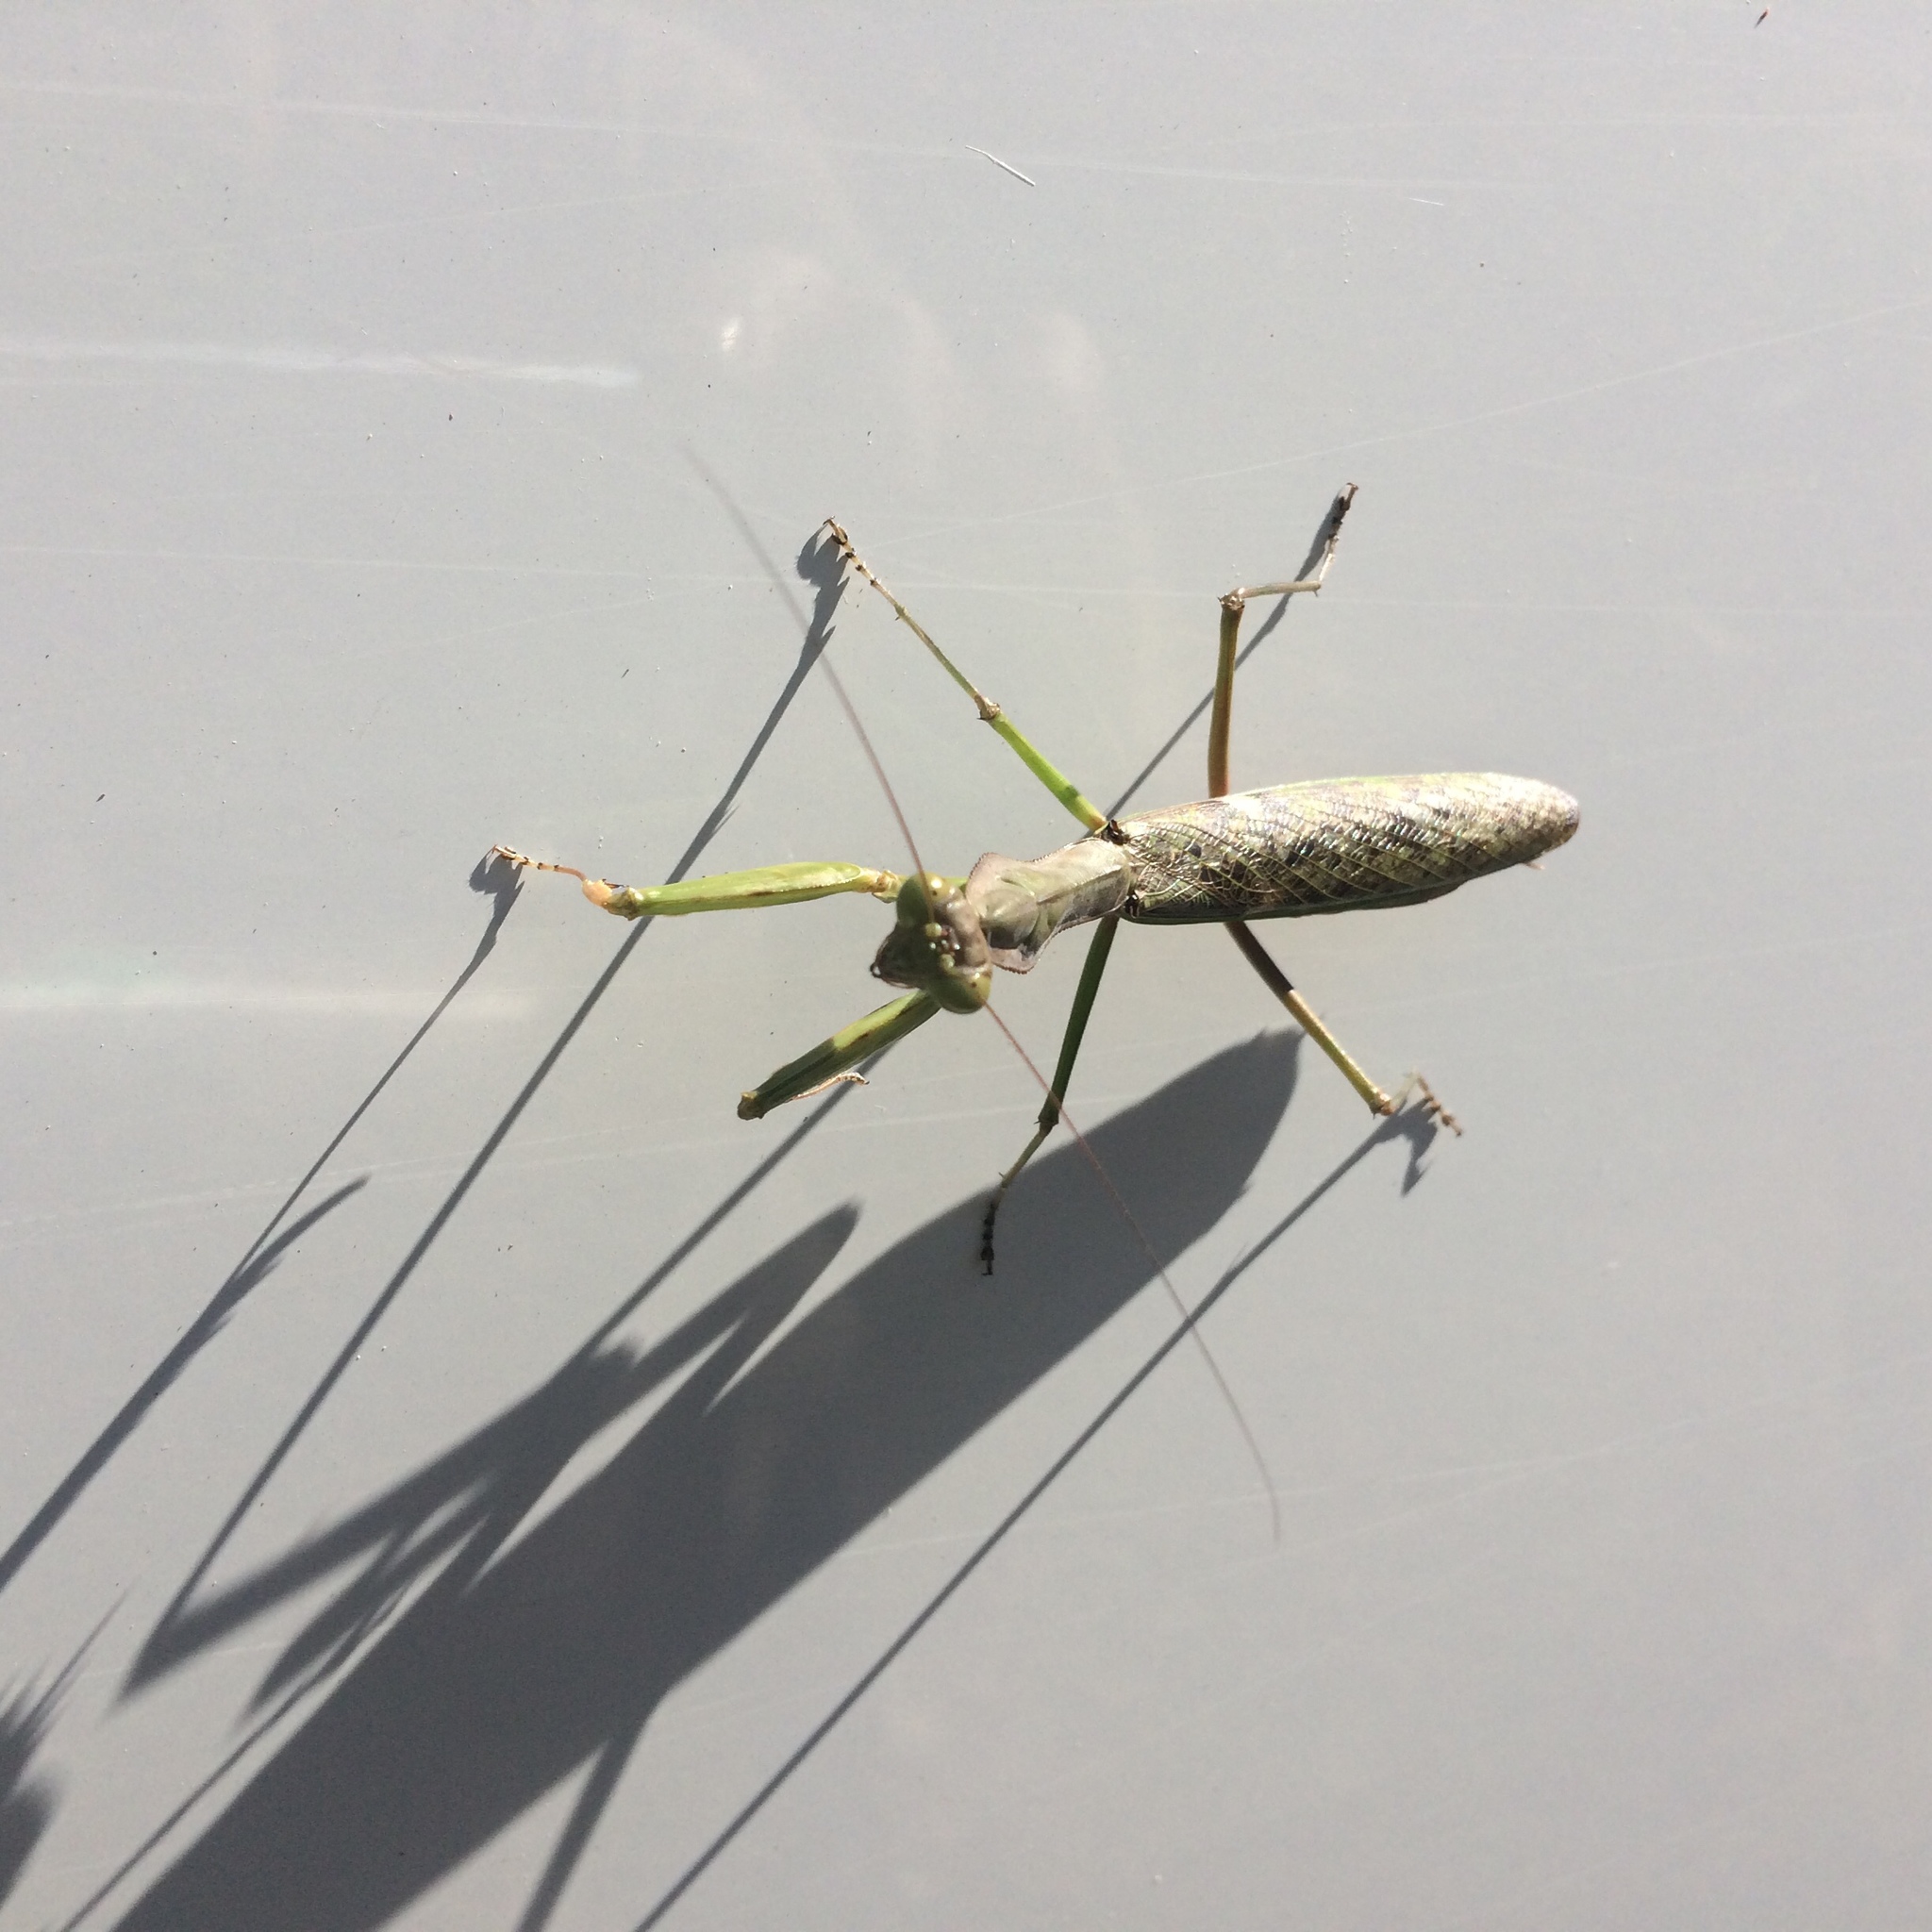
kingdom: Animalia
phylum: Arthropoda
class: Insecta
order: Mantodea
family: Mantidae
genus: Polyspilota
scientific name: Polyspilota aeruginosa
